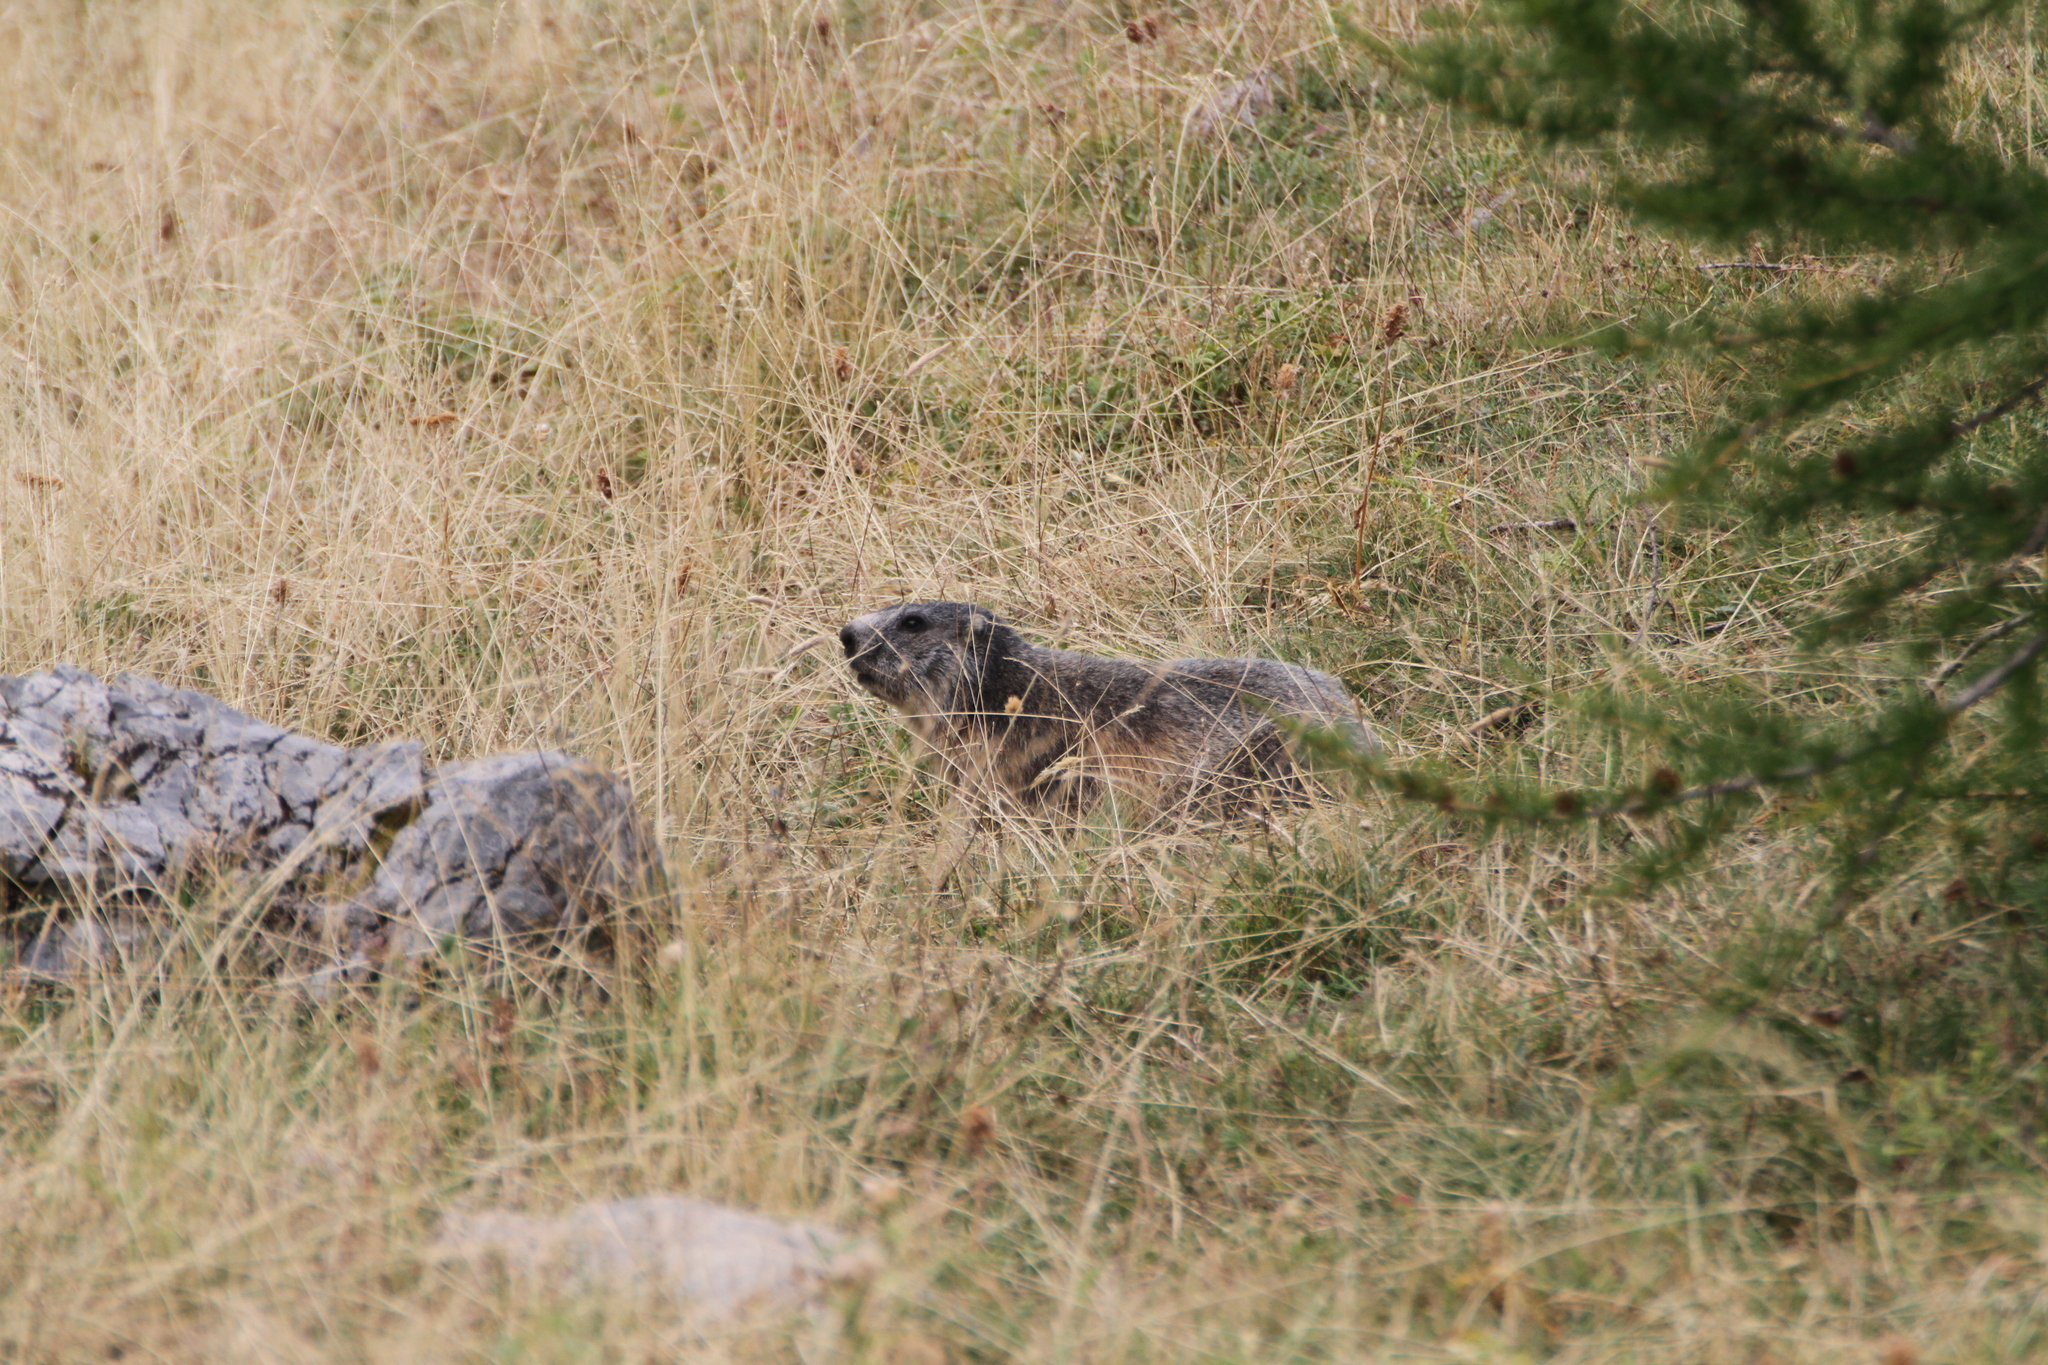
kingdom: Animalia
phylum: Chordata
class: Mammalia
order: Rodentia
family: Sciuridae
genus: Marmota
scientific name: Marmota marmota
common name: Alpine marmot
